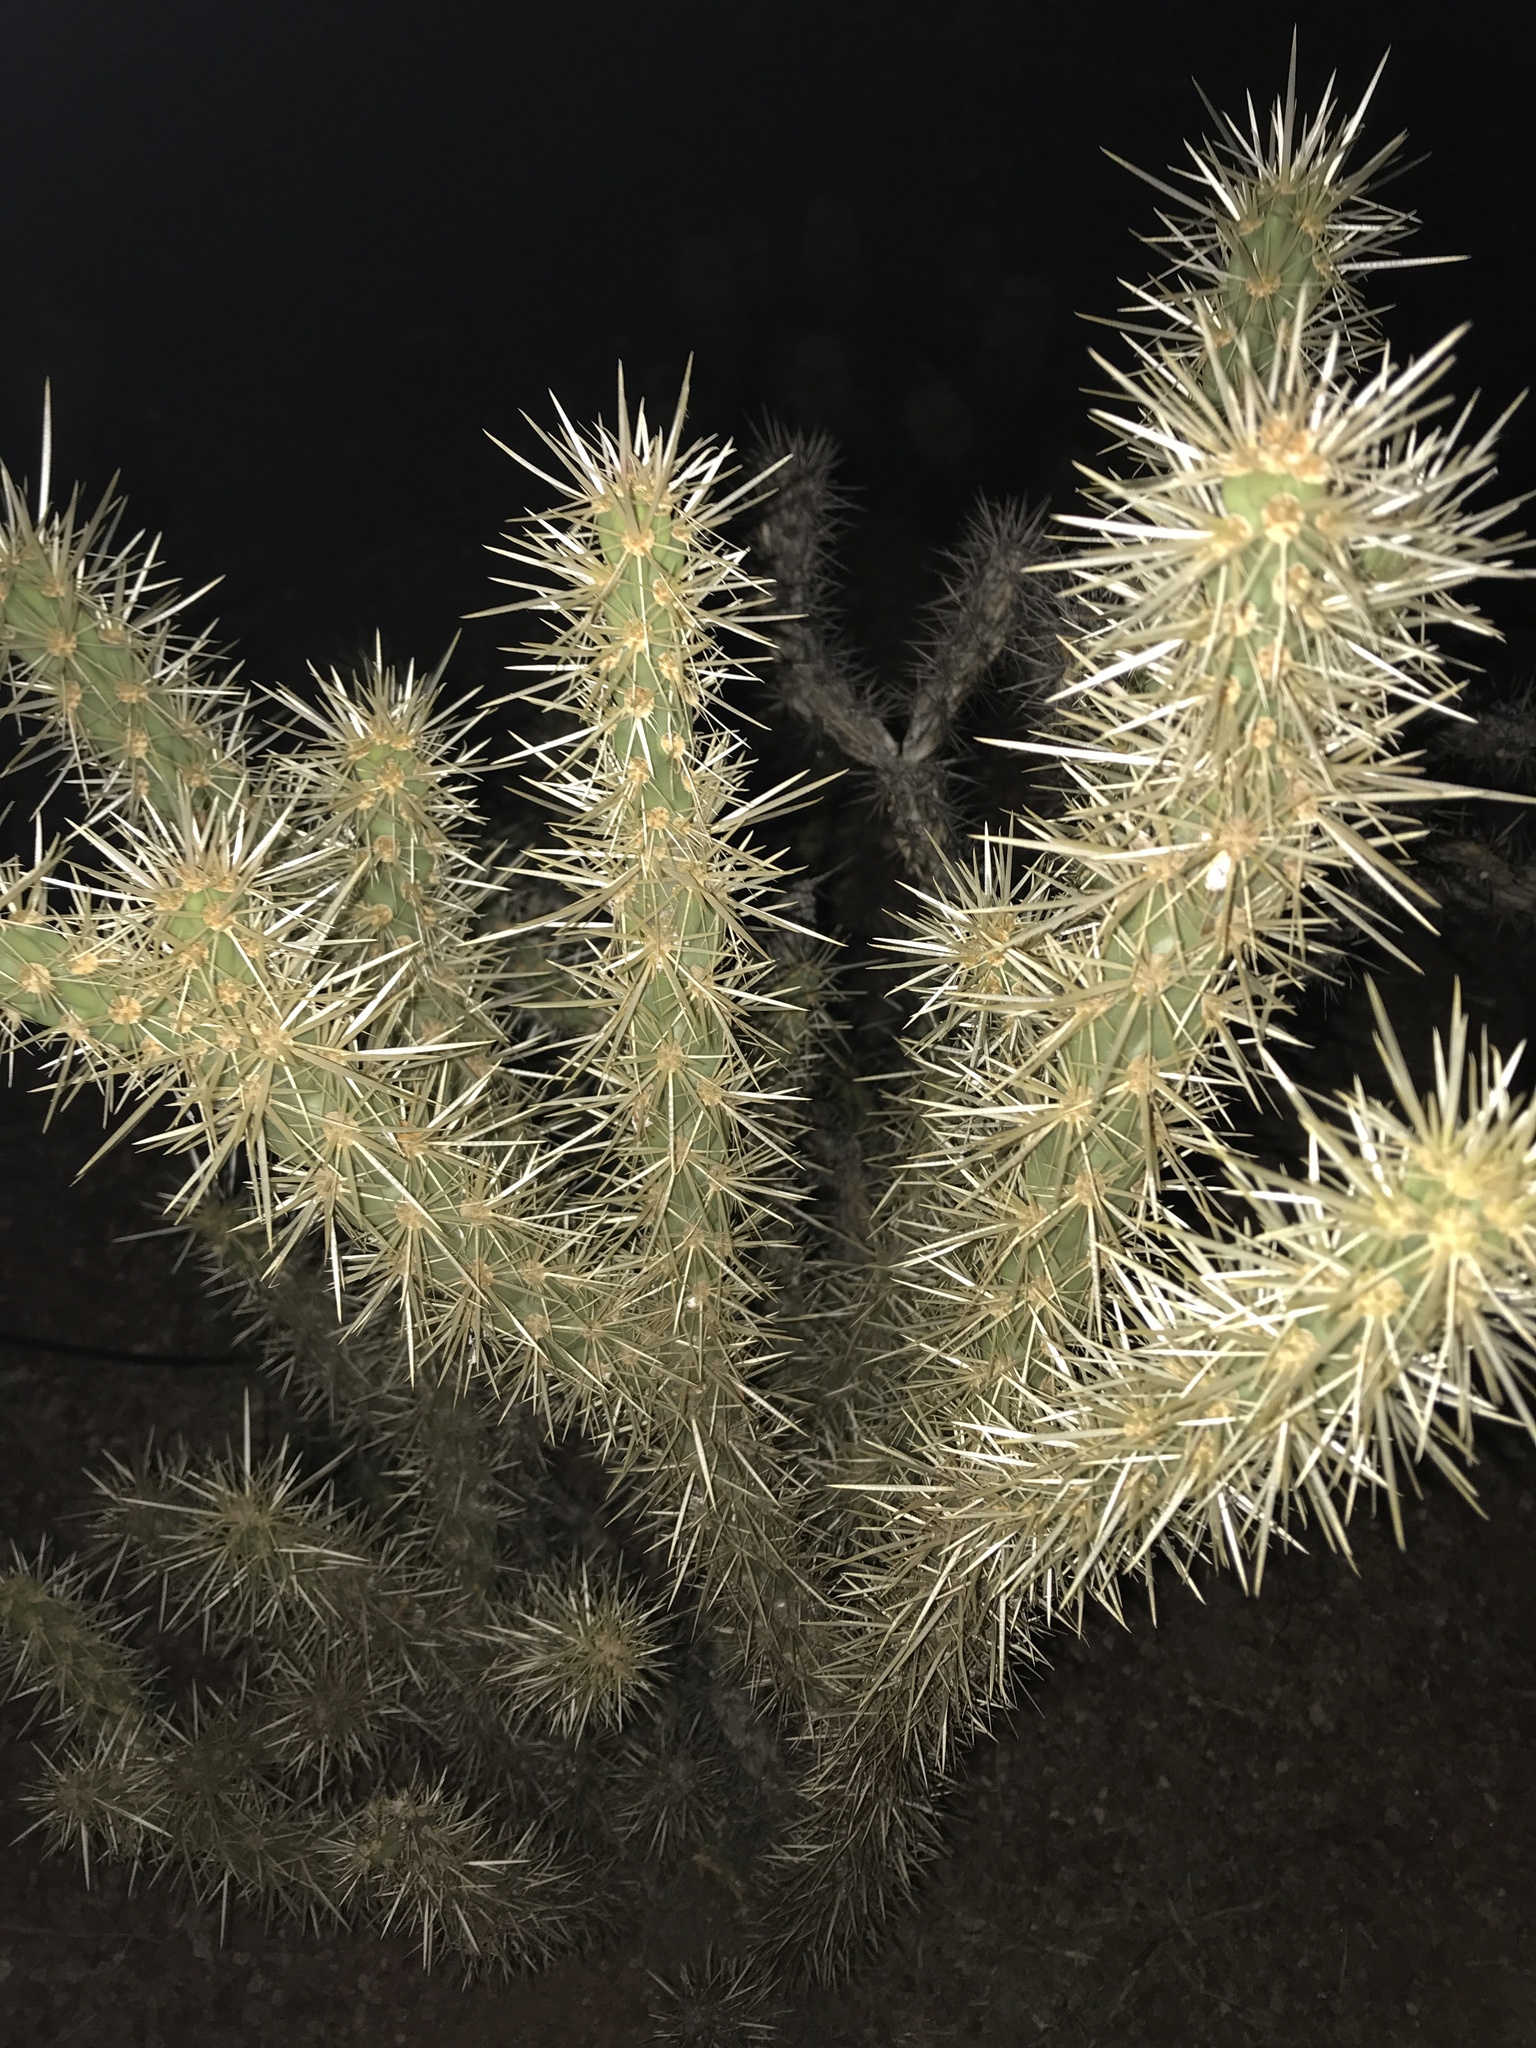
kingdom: Plantae
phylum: Tracheophyta
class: Magnoliopsida
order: Caryophyllales
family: Cactaceae
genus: Cylindropuntia
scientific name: Cylindropuntia acanthocarpa
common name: Buckhorn cholla
